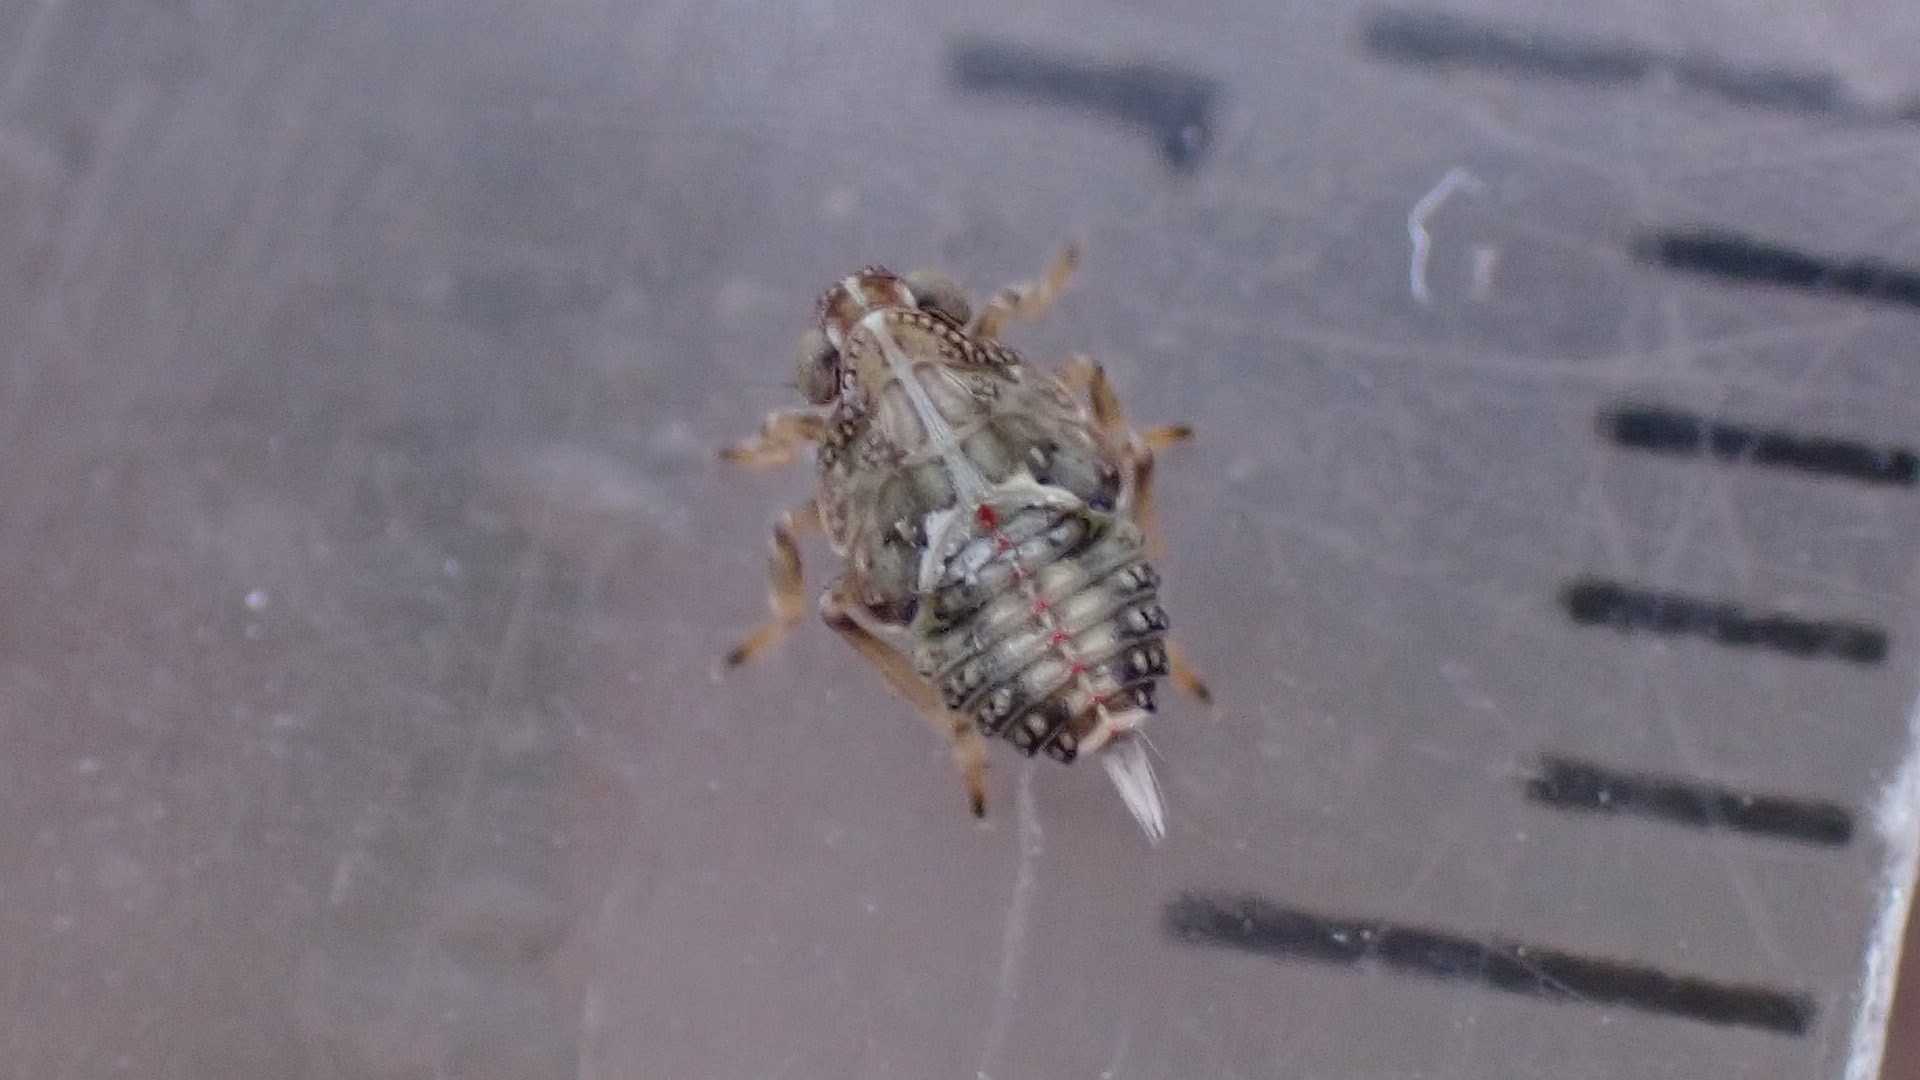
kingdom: Animalia
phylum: Arthropoda
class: Insecta
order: Hemiptera
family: Issidae
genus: Issus
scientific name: Issus coleoptratus
